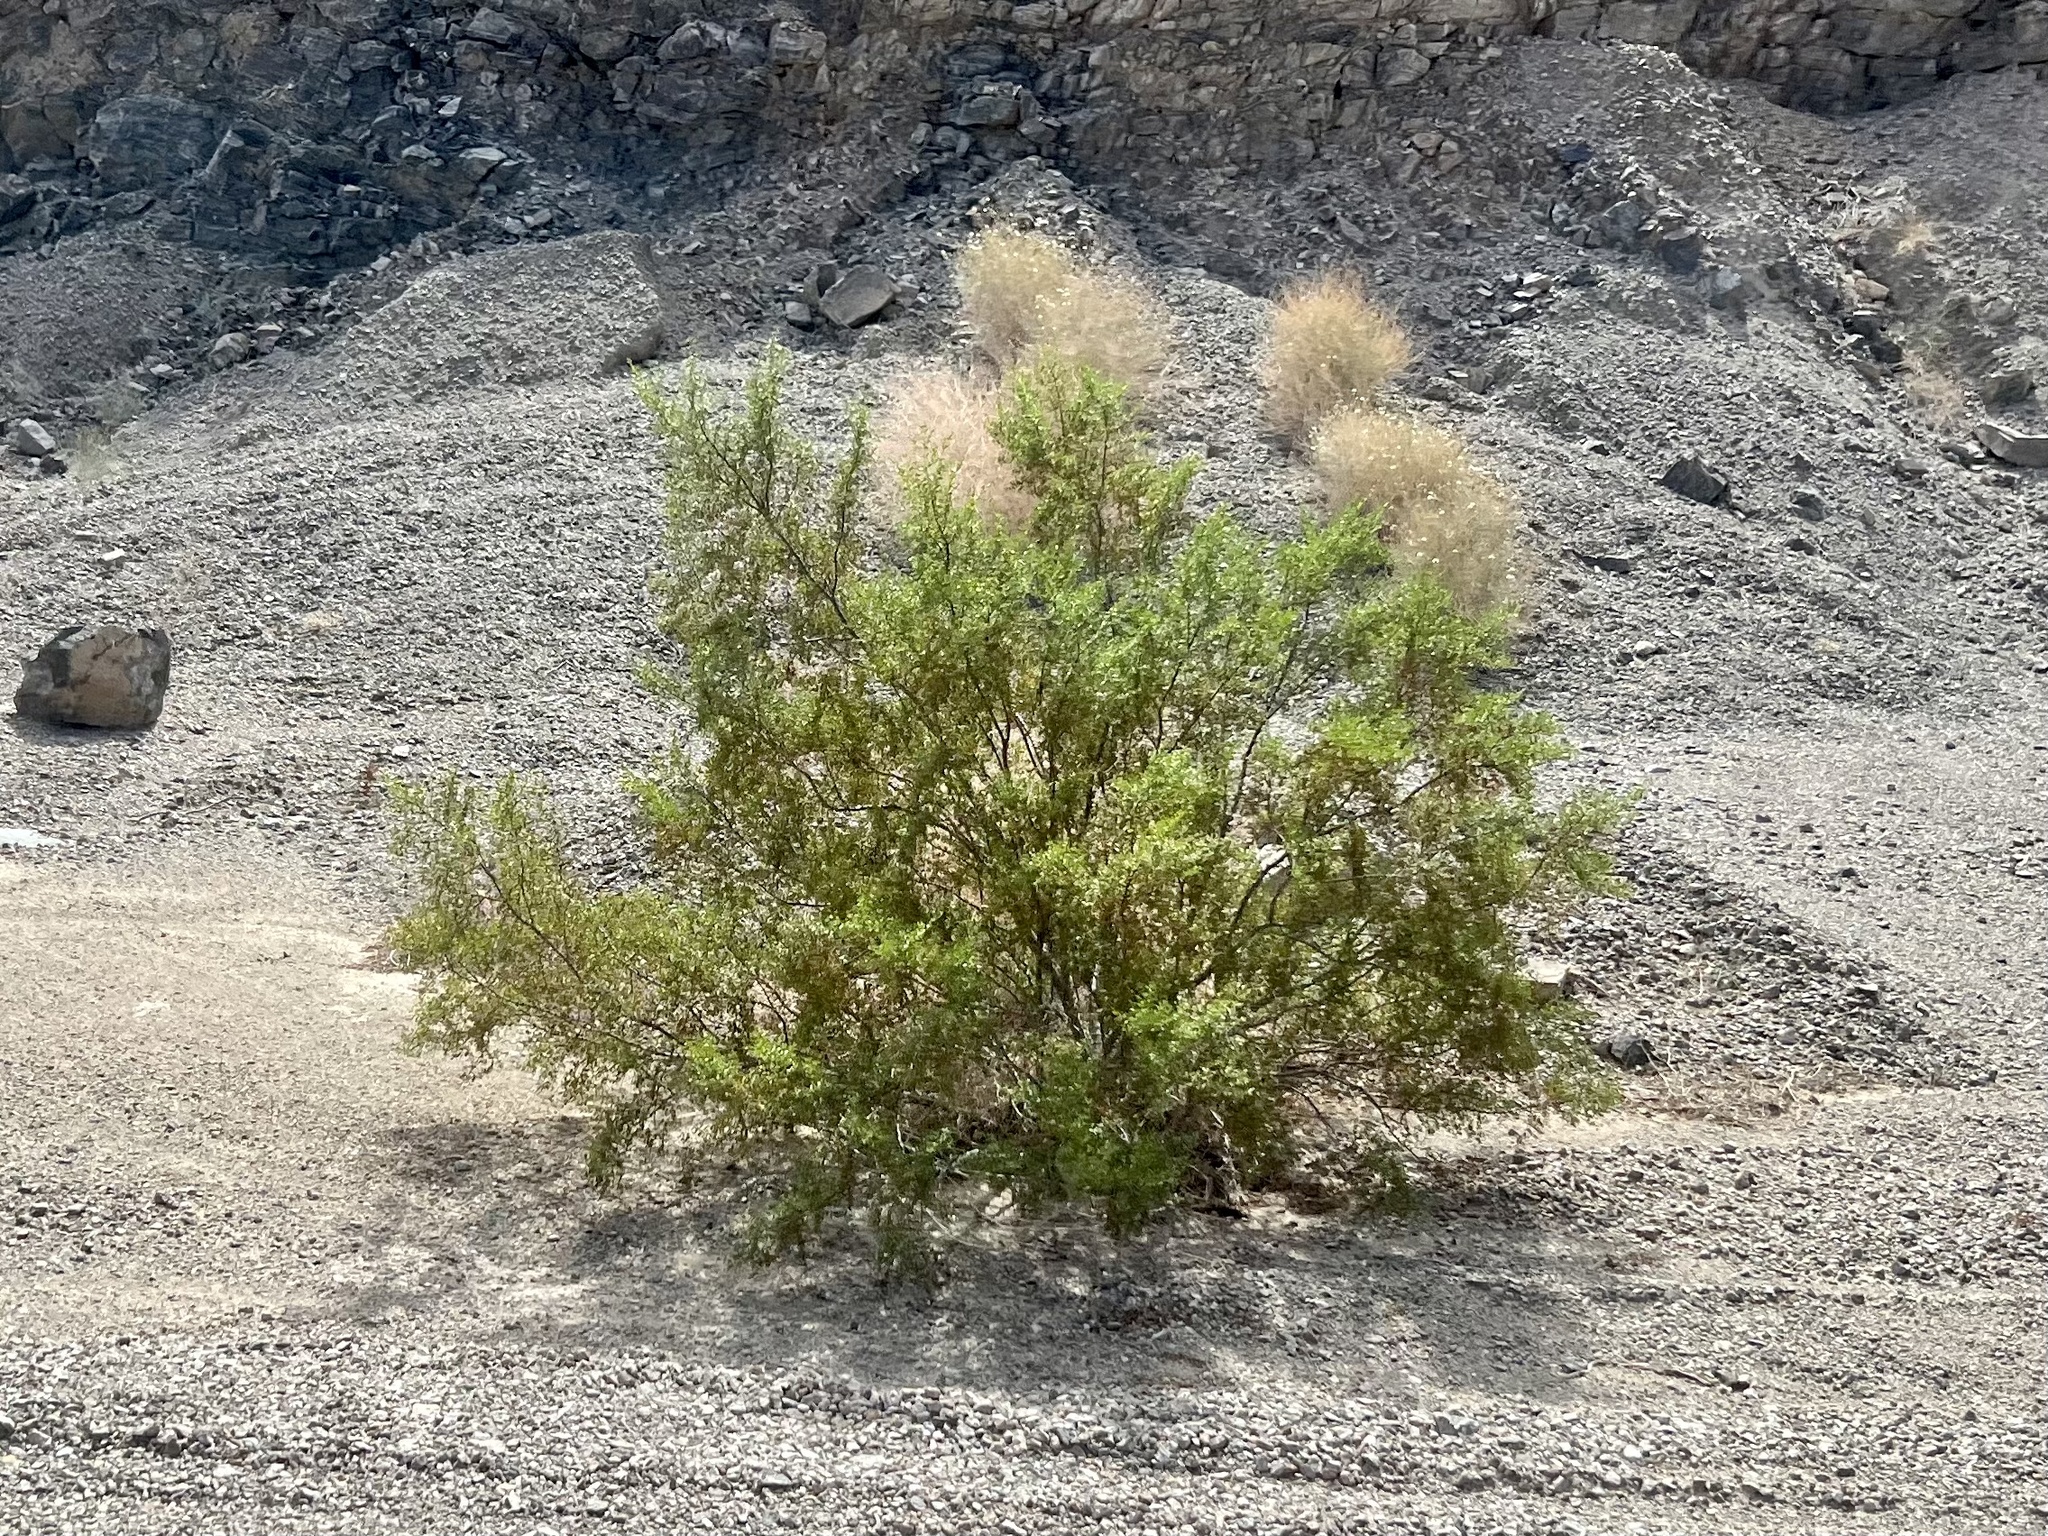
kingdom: Plantae
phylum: Tracheophyta
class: Magnoliopsida
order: Zygophyllales
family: Zygophyllaceae
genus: Larrea
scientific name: Larrea tridentata
